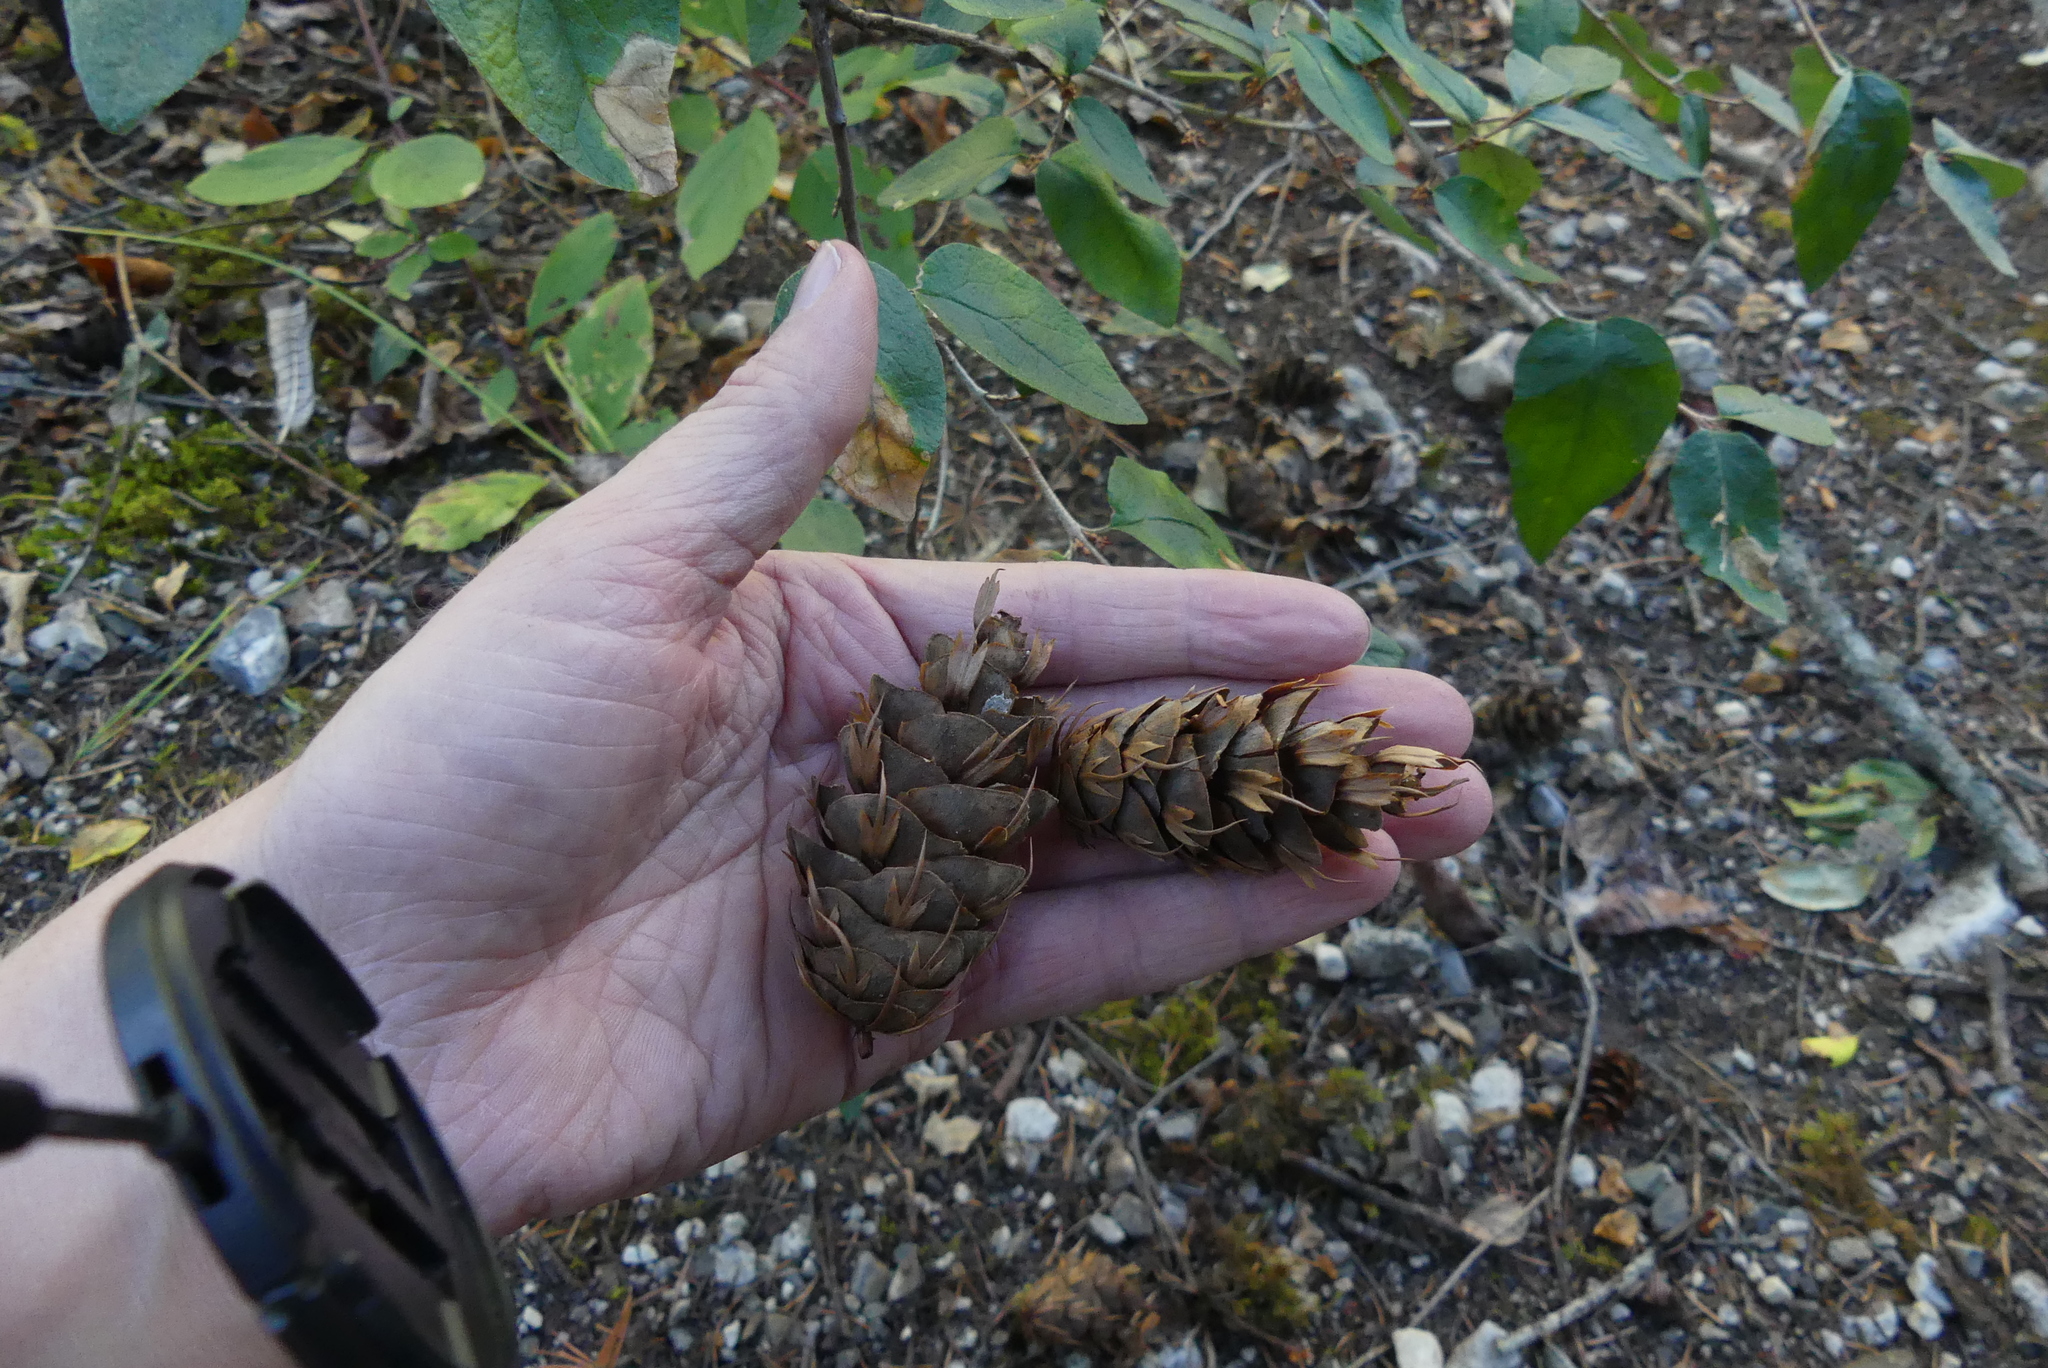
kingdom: Plantae
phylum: Tracheophyta
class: Pinopsida
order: Pinales
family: Pinaceae
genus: Pseudotsuga
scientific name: Pseudotsuga menziesii
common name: Douglas fir
